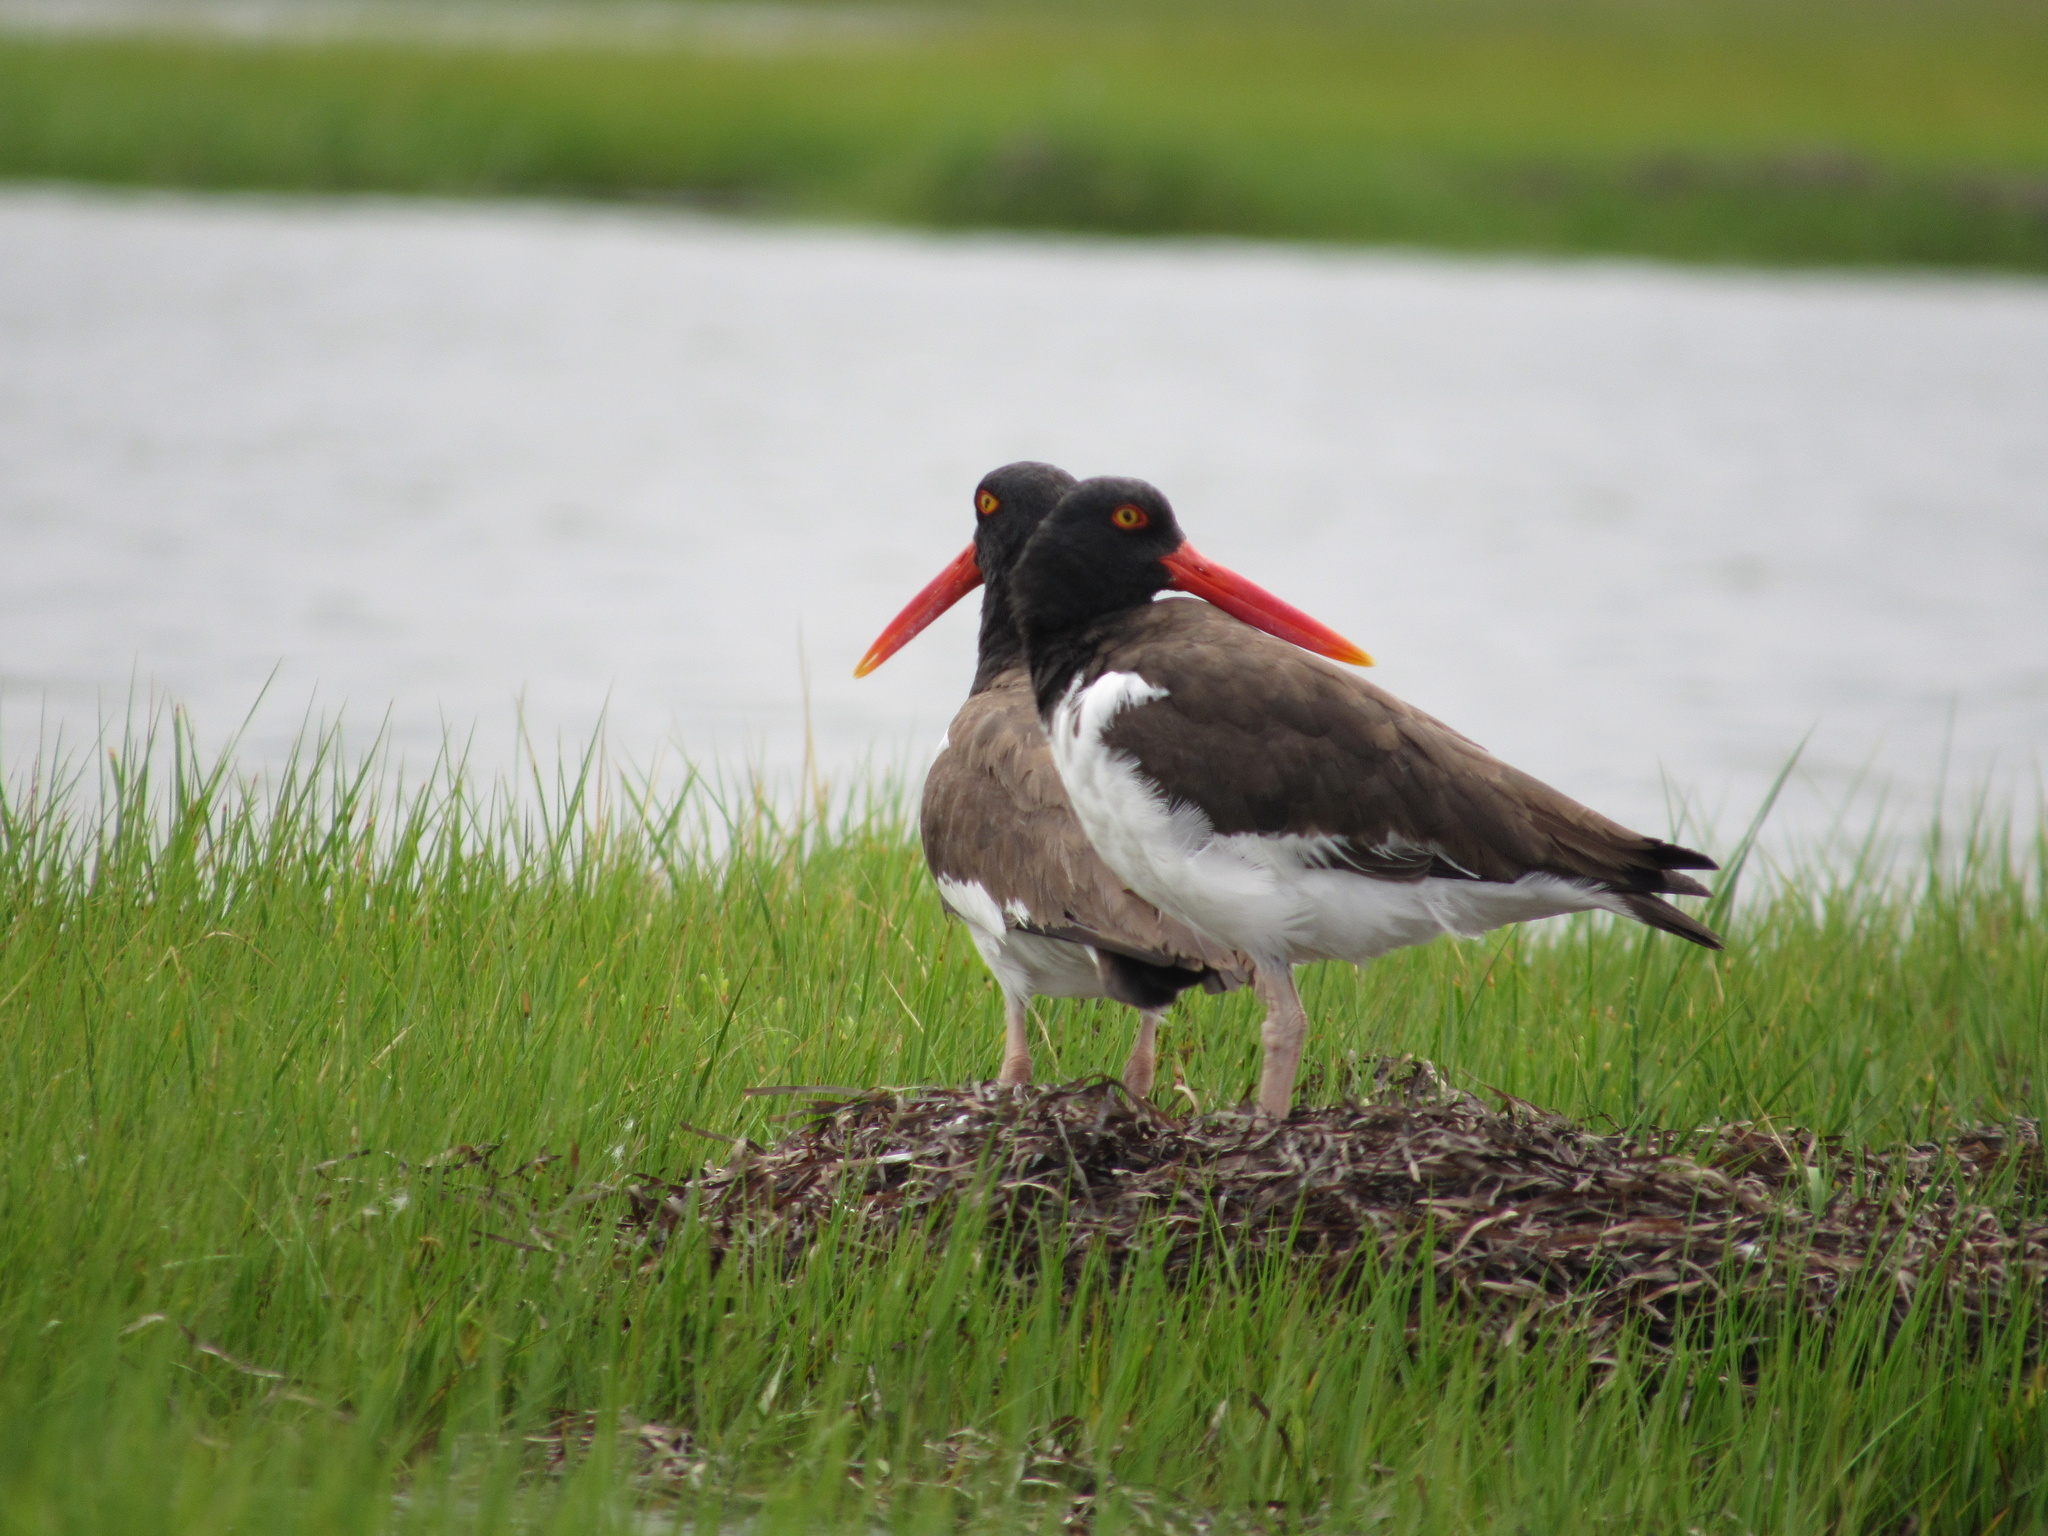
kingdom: Animalia
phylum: Chordata
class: Aves
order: Charadriiformes
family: Haematopodidae
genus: Haematopus
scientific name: Haematopus palliatus
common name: American oystercatcher
